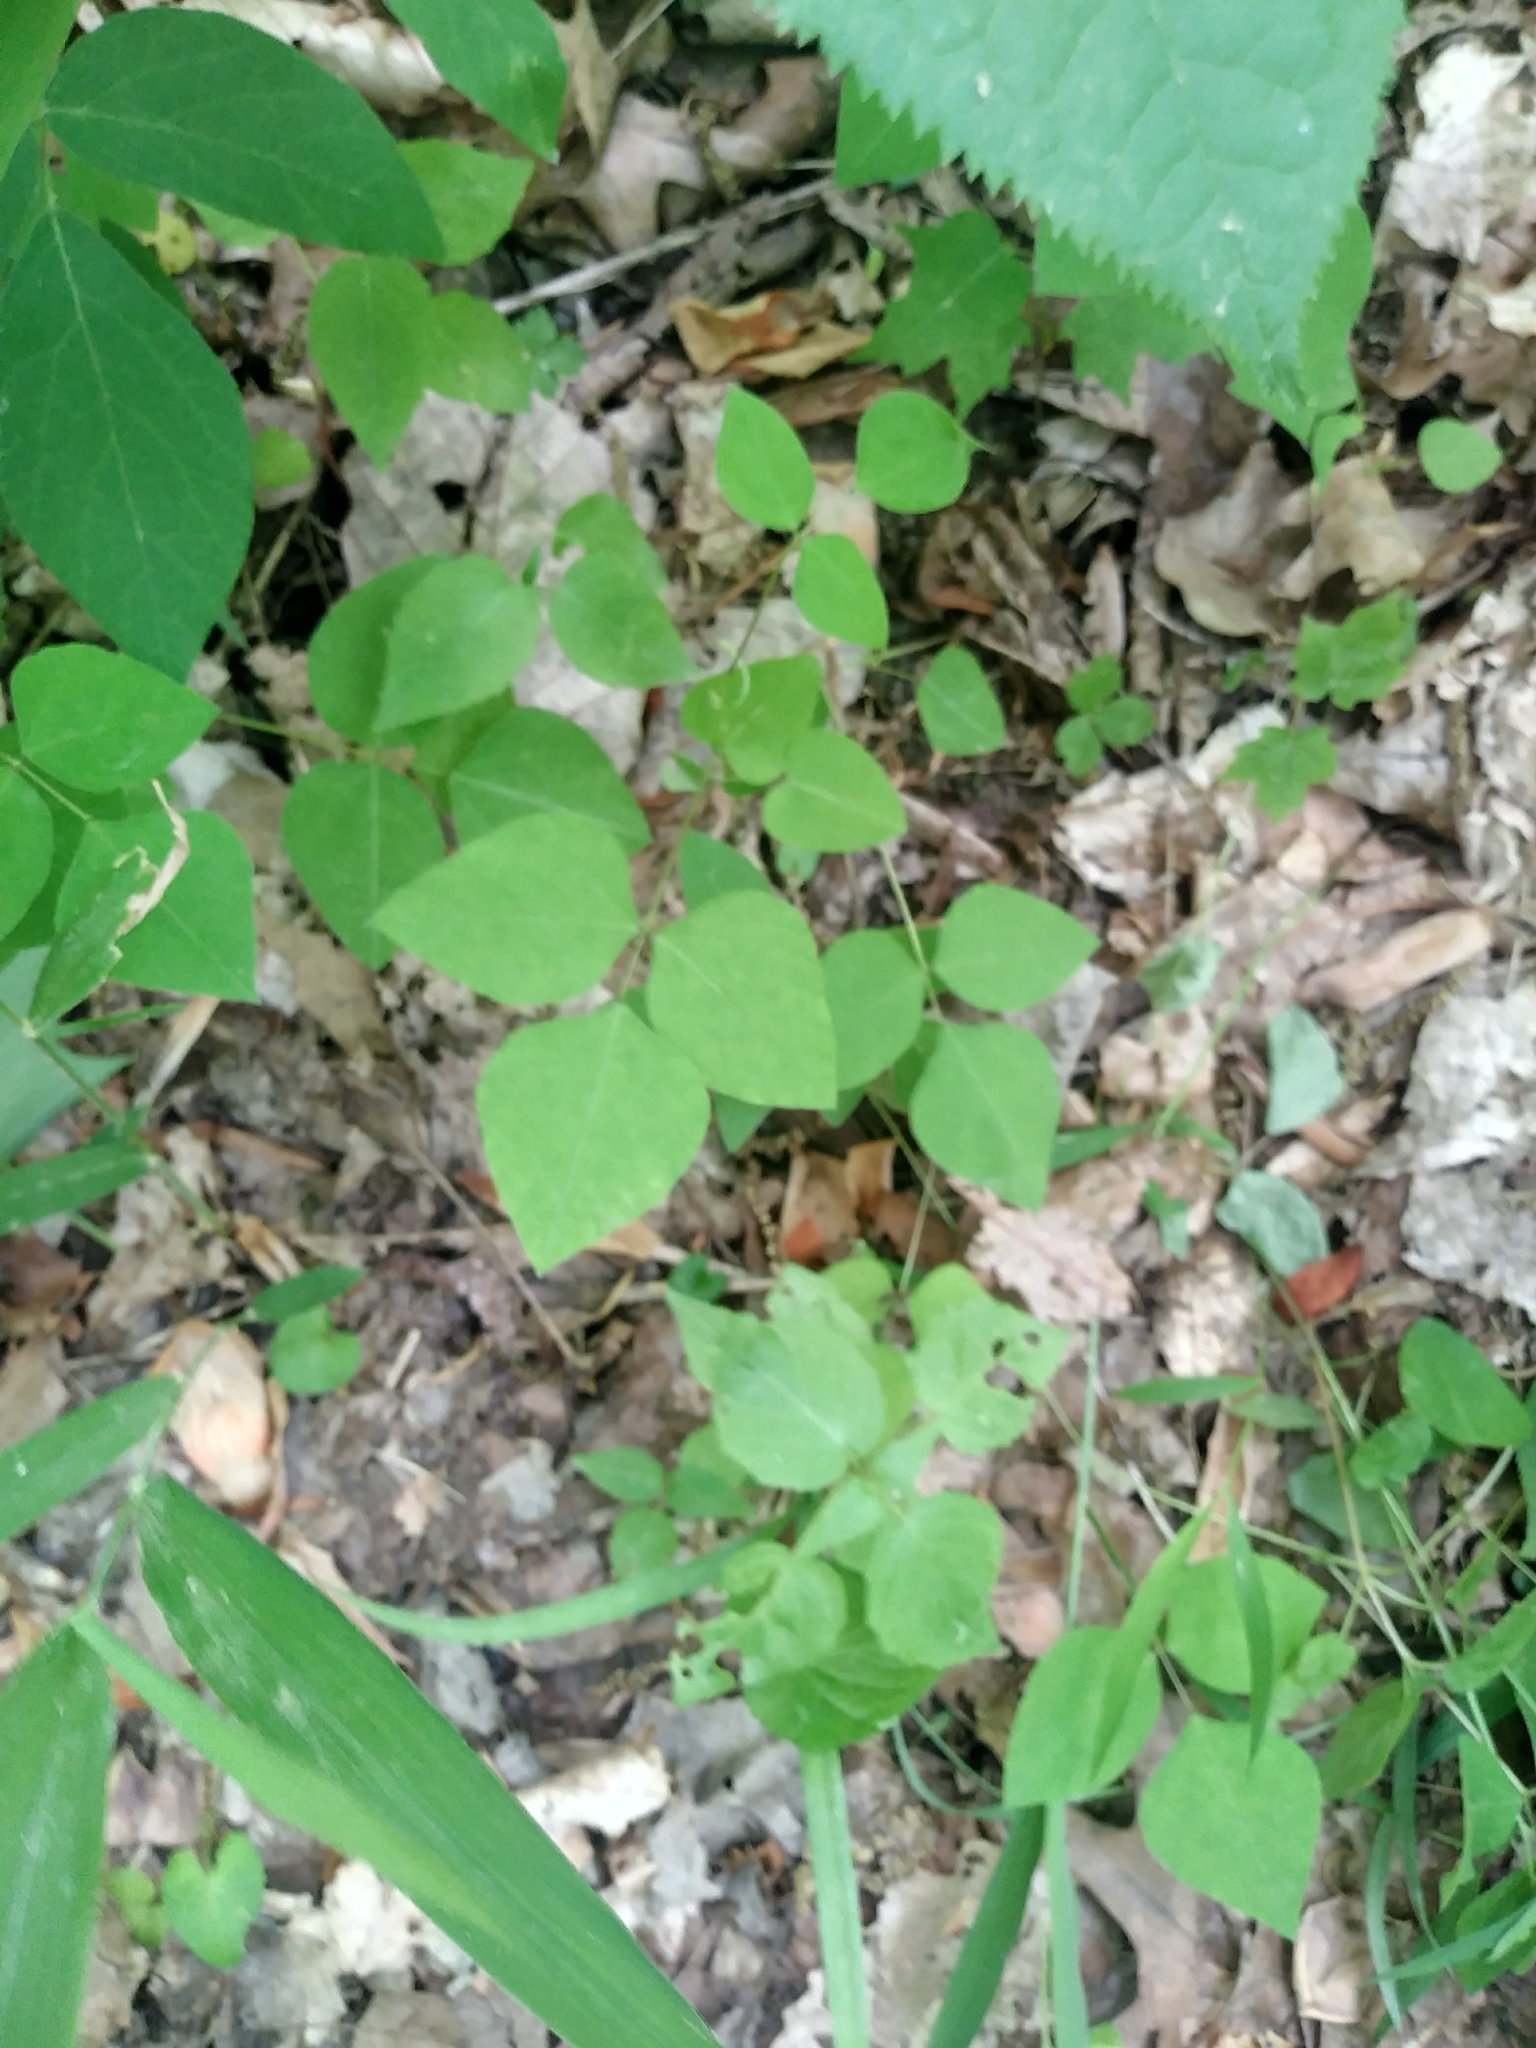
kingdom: Plantae
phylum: Tracheophyta
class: Magnoliopsida
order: Fabales
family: Fabaceae
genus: Amphicarpaea
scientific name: Amphicarpaea bracteata
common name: American hog peanut
